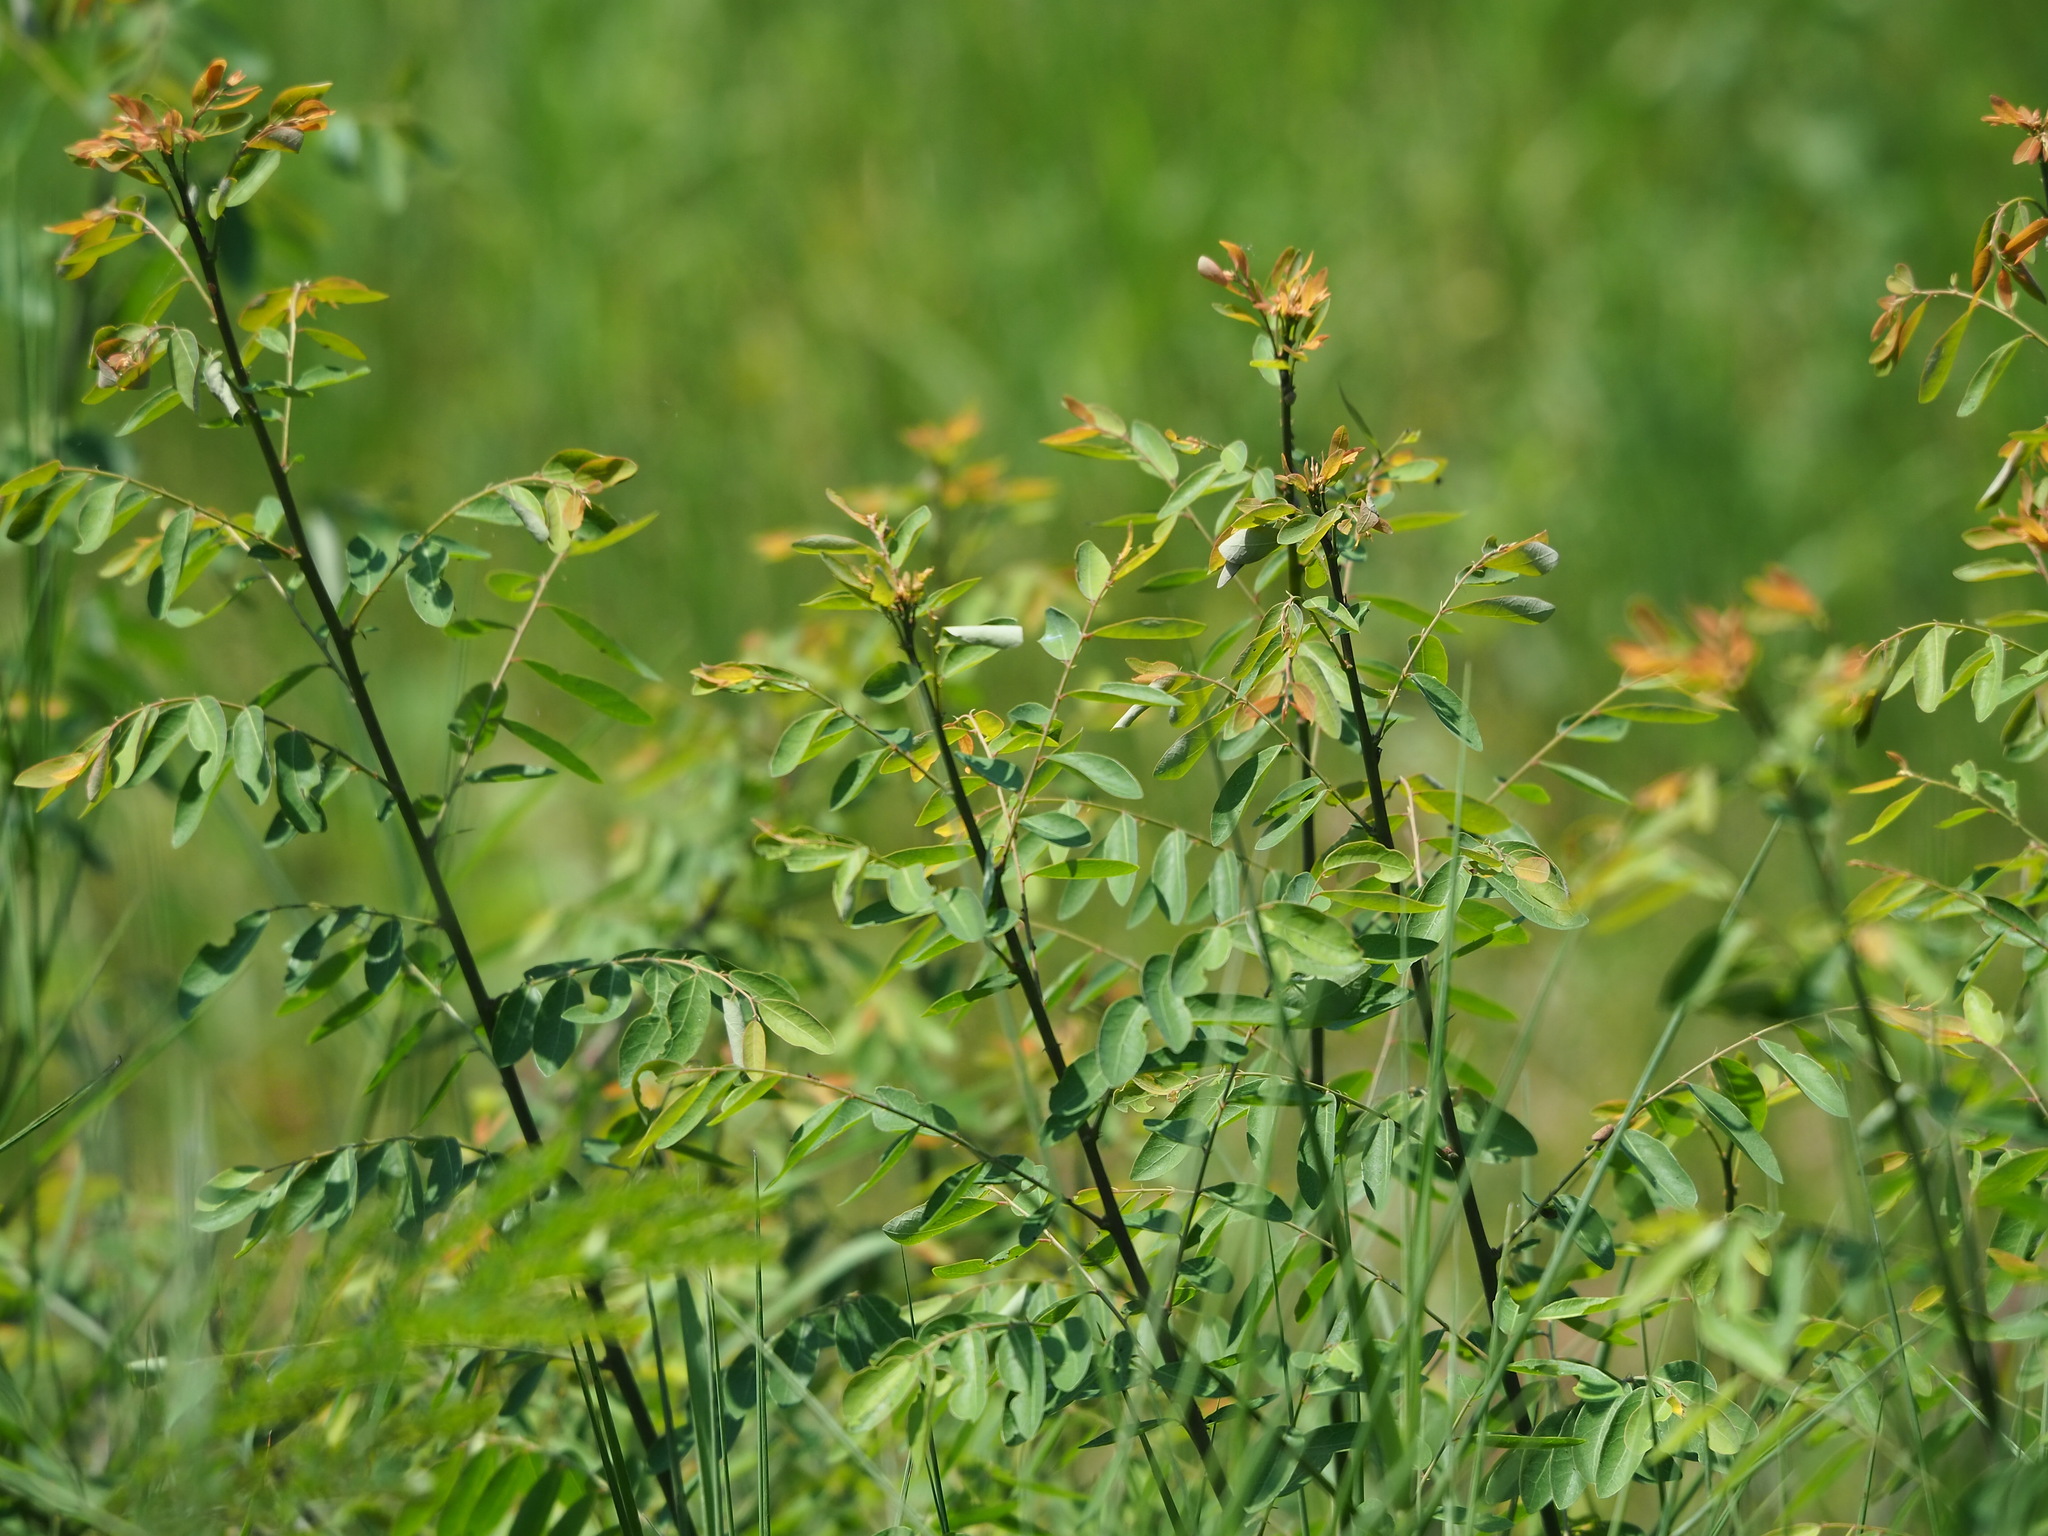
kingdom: Plantae
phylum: Tracheophyta
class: Magnoliopsida
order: Malpighiales
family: Phyllanthaceae
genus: Phyllanthus
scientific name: Phyllanthus reticulatus
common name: Potato bush
